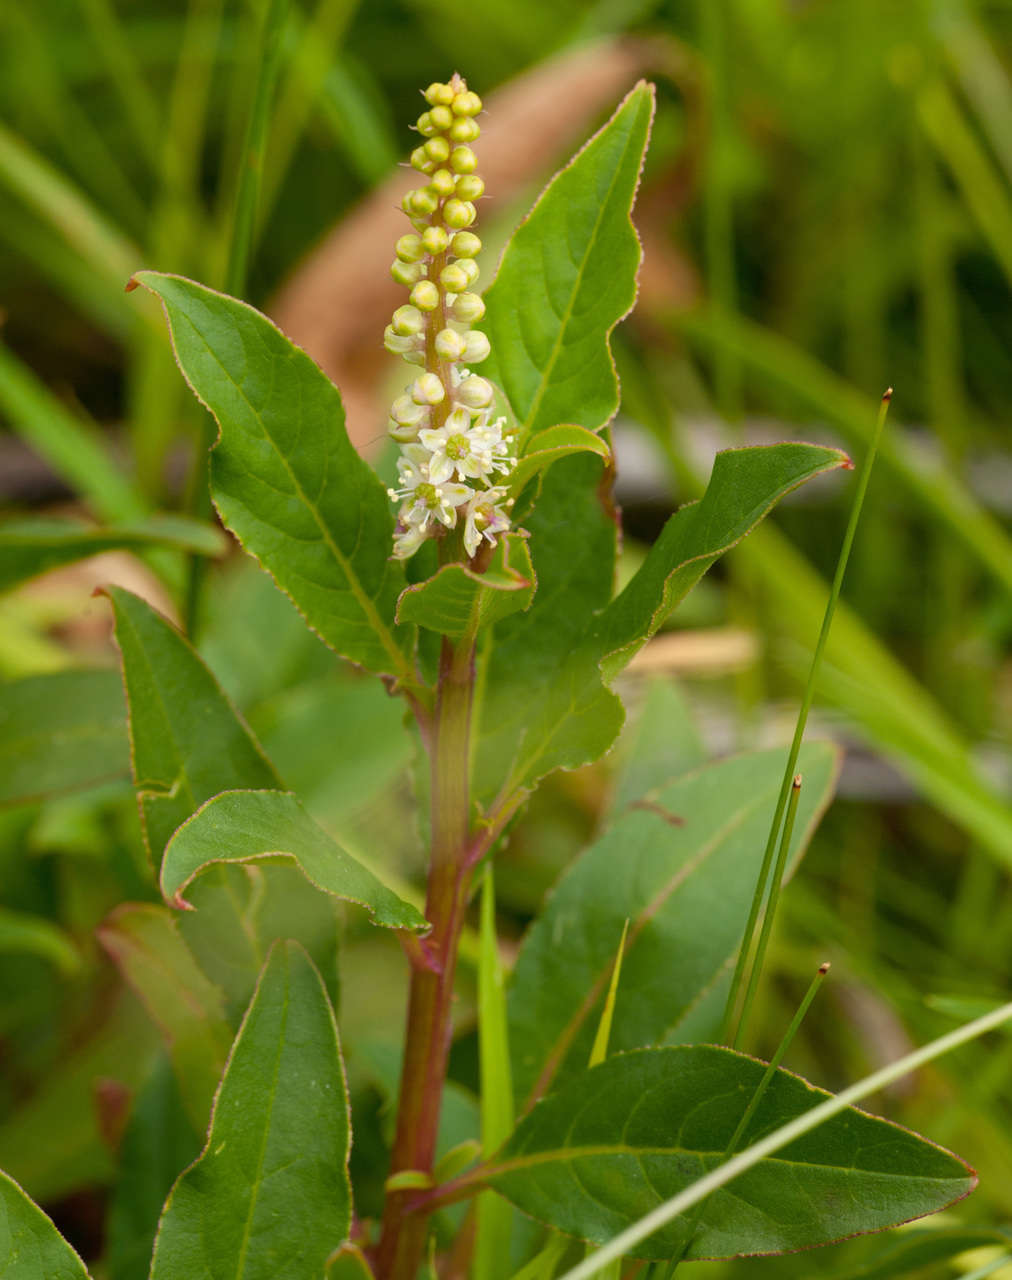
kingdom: Plantae
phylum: Tracheophyta
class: Magnoliopsida
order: Caryophyllales
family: Phytolaccaceae
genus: Phytolacca
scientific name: Phytolacca icosandra
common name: Button pokeweed
